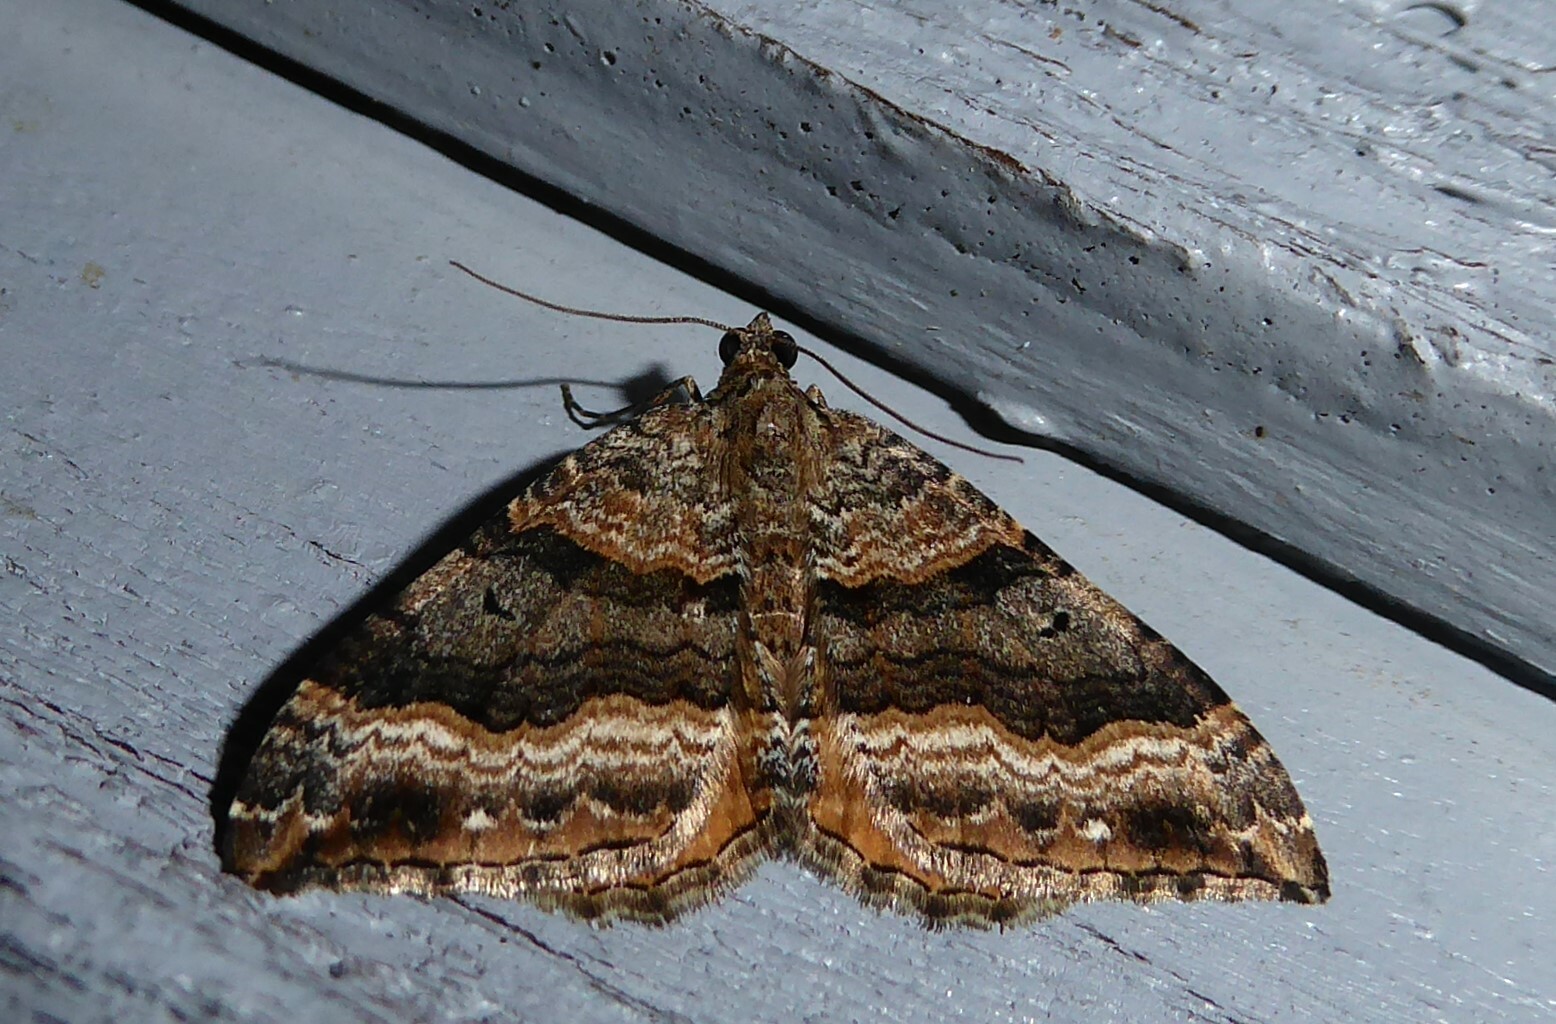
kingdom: Animalia
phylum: Arthropoda
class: Insecta
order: Lepidoptera
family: Geometridae
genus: Hydriomena
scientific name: Hydriomena deltoidata
